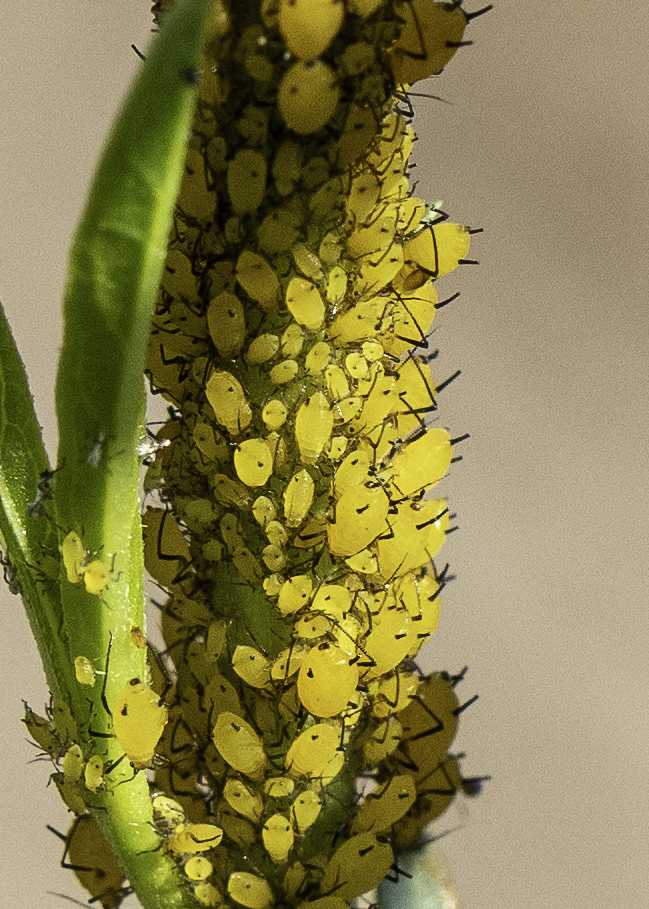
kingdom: Animalia
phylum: Arthropoda
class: Insecta
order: Hemiptera
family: Aphididae
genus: Aphis
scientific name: Aphis nerii
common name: Oleander aphid
